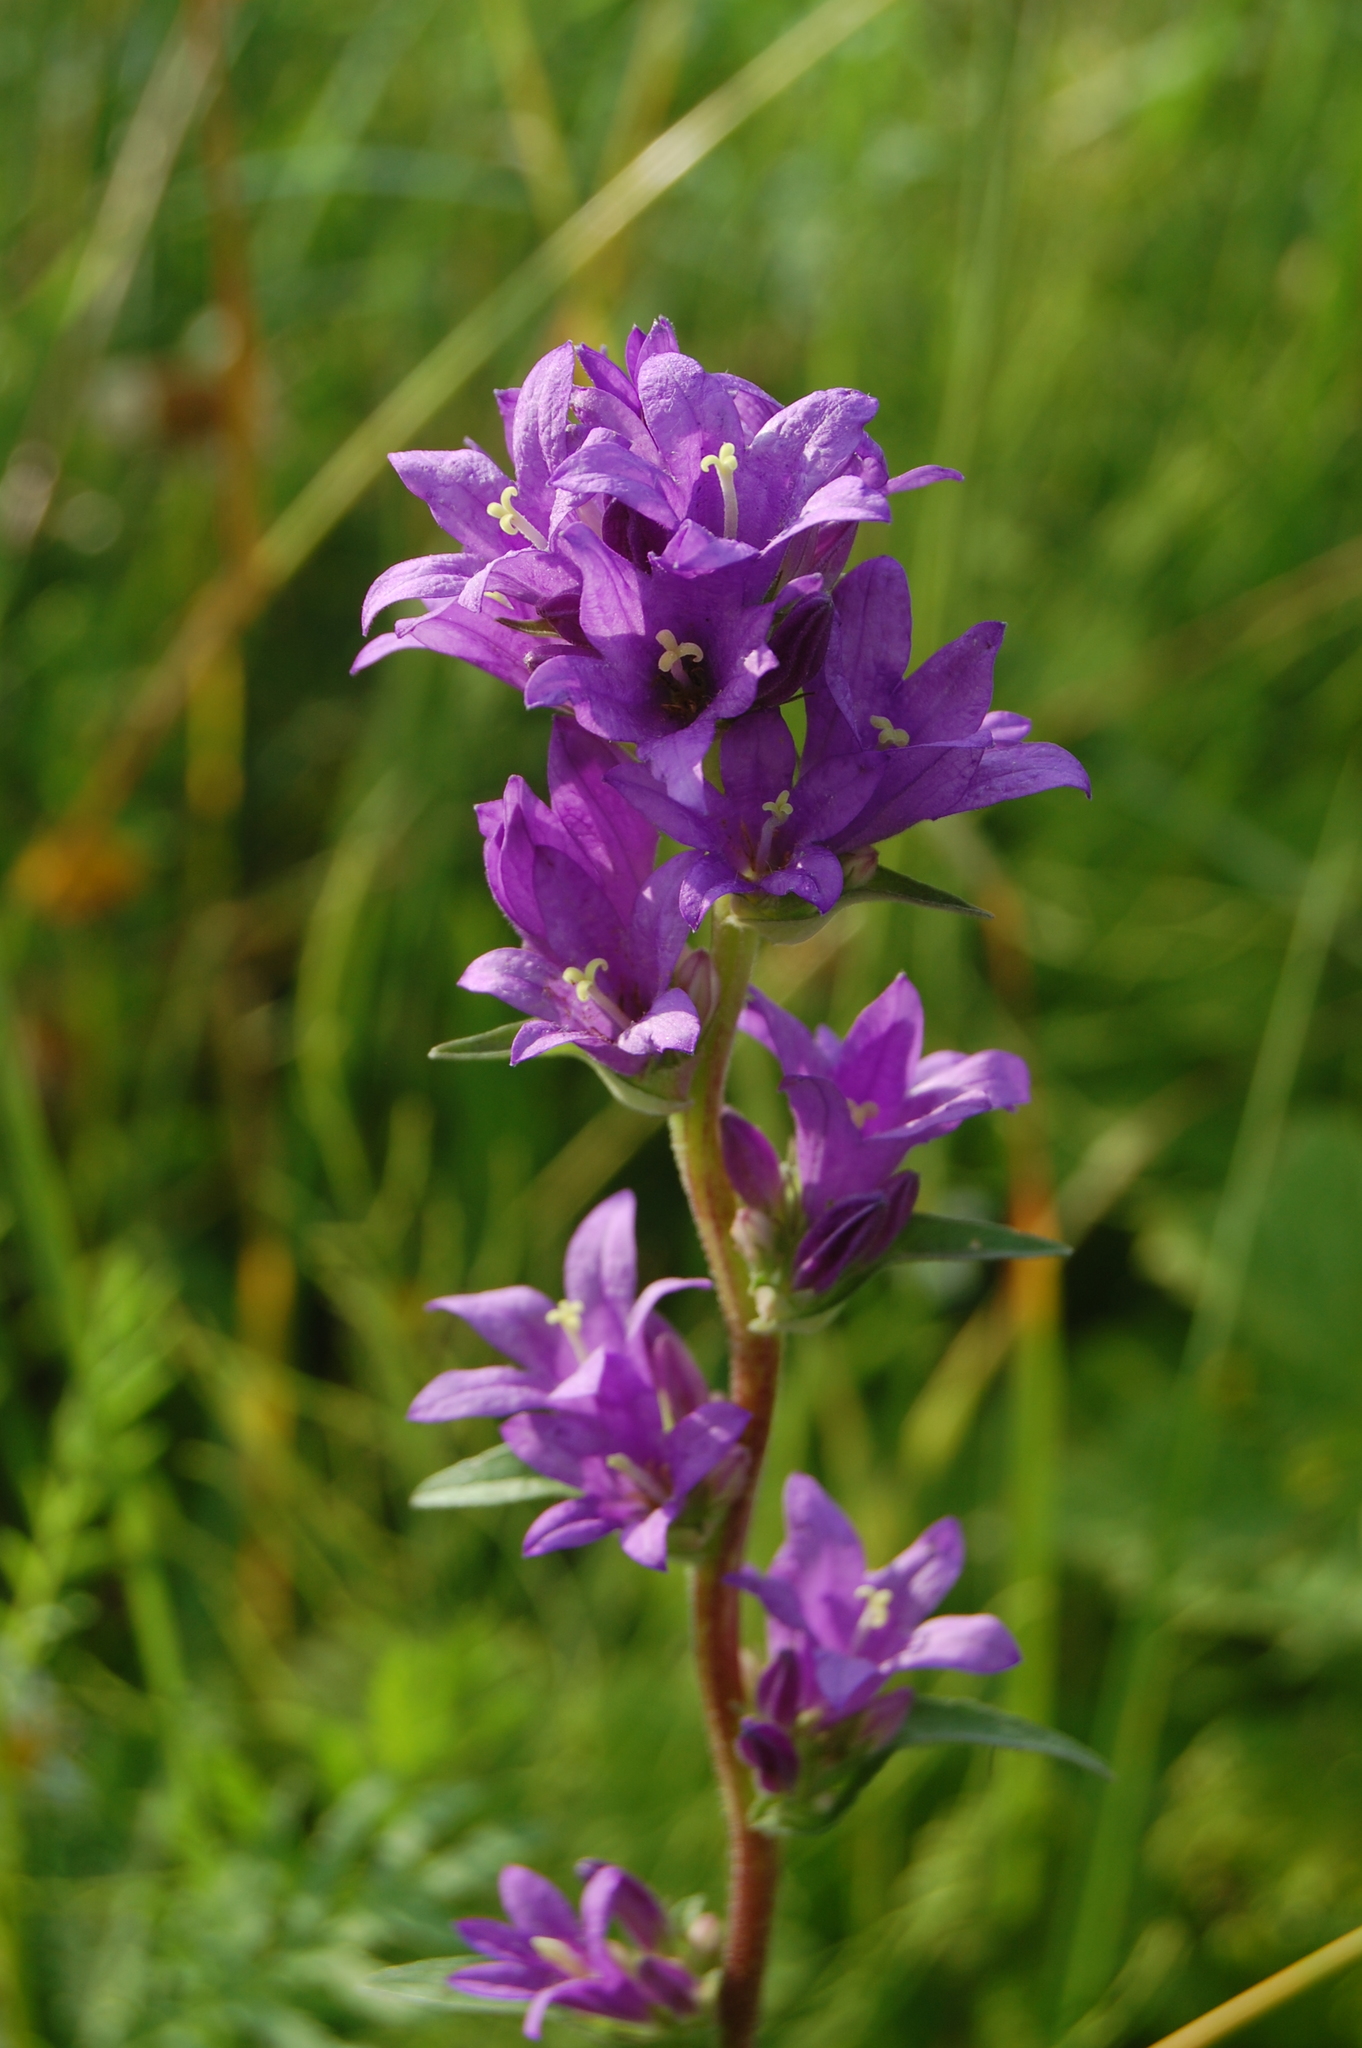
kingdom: Plantae
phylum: Tracheophyta
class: Magnoliopsida
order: Asterales
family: Campanulaceae
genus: Campanula
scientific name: Campanula glomerata
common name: Clustered bellflower
